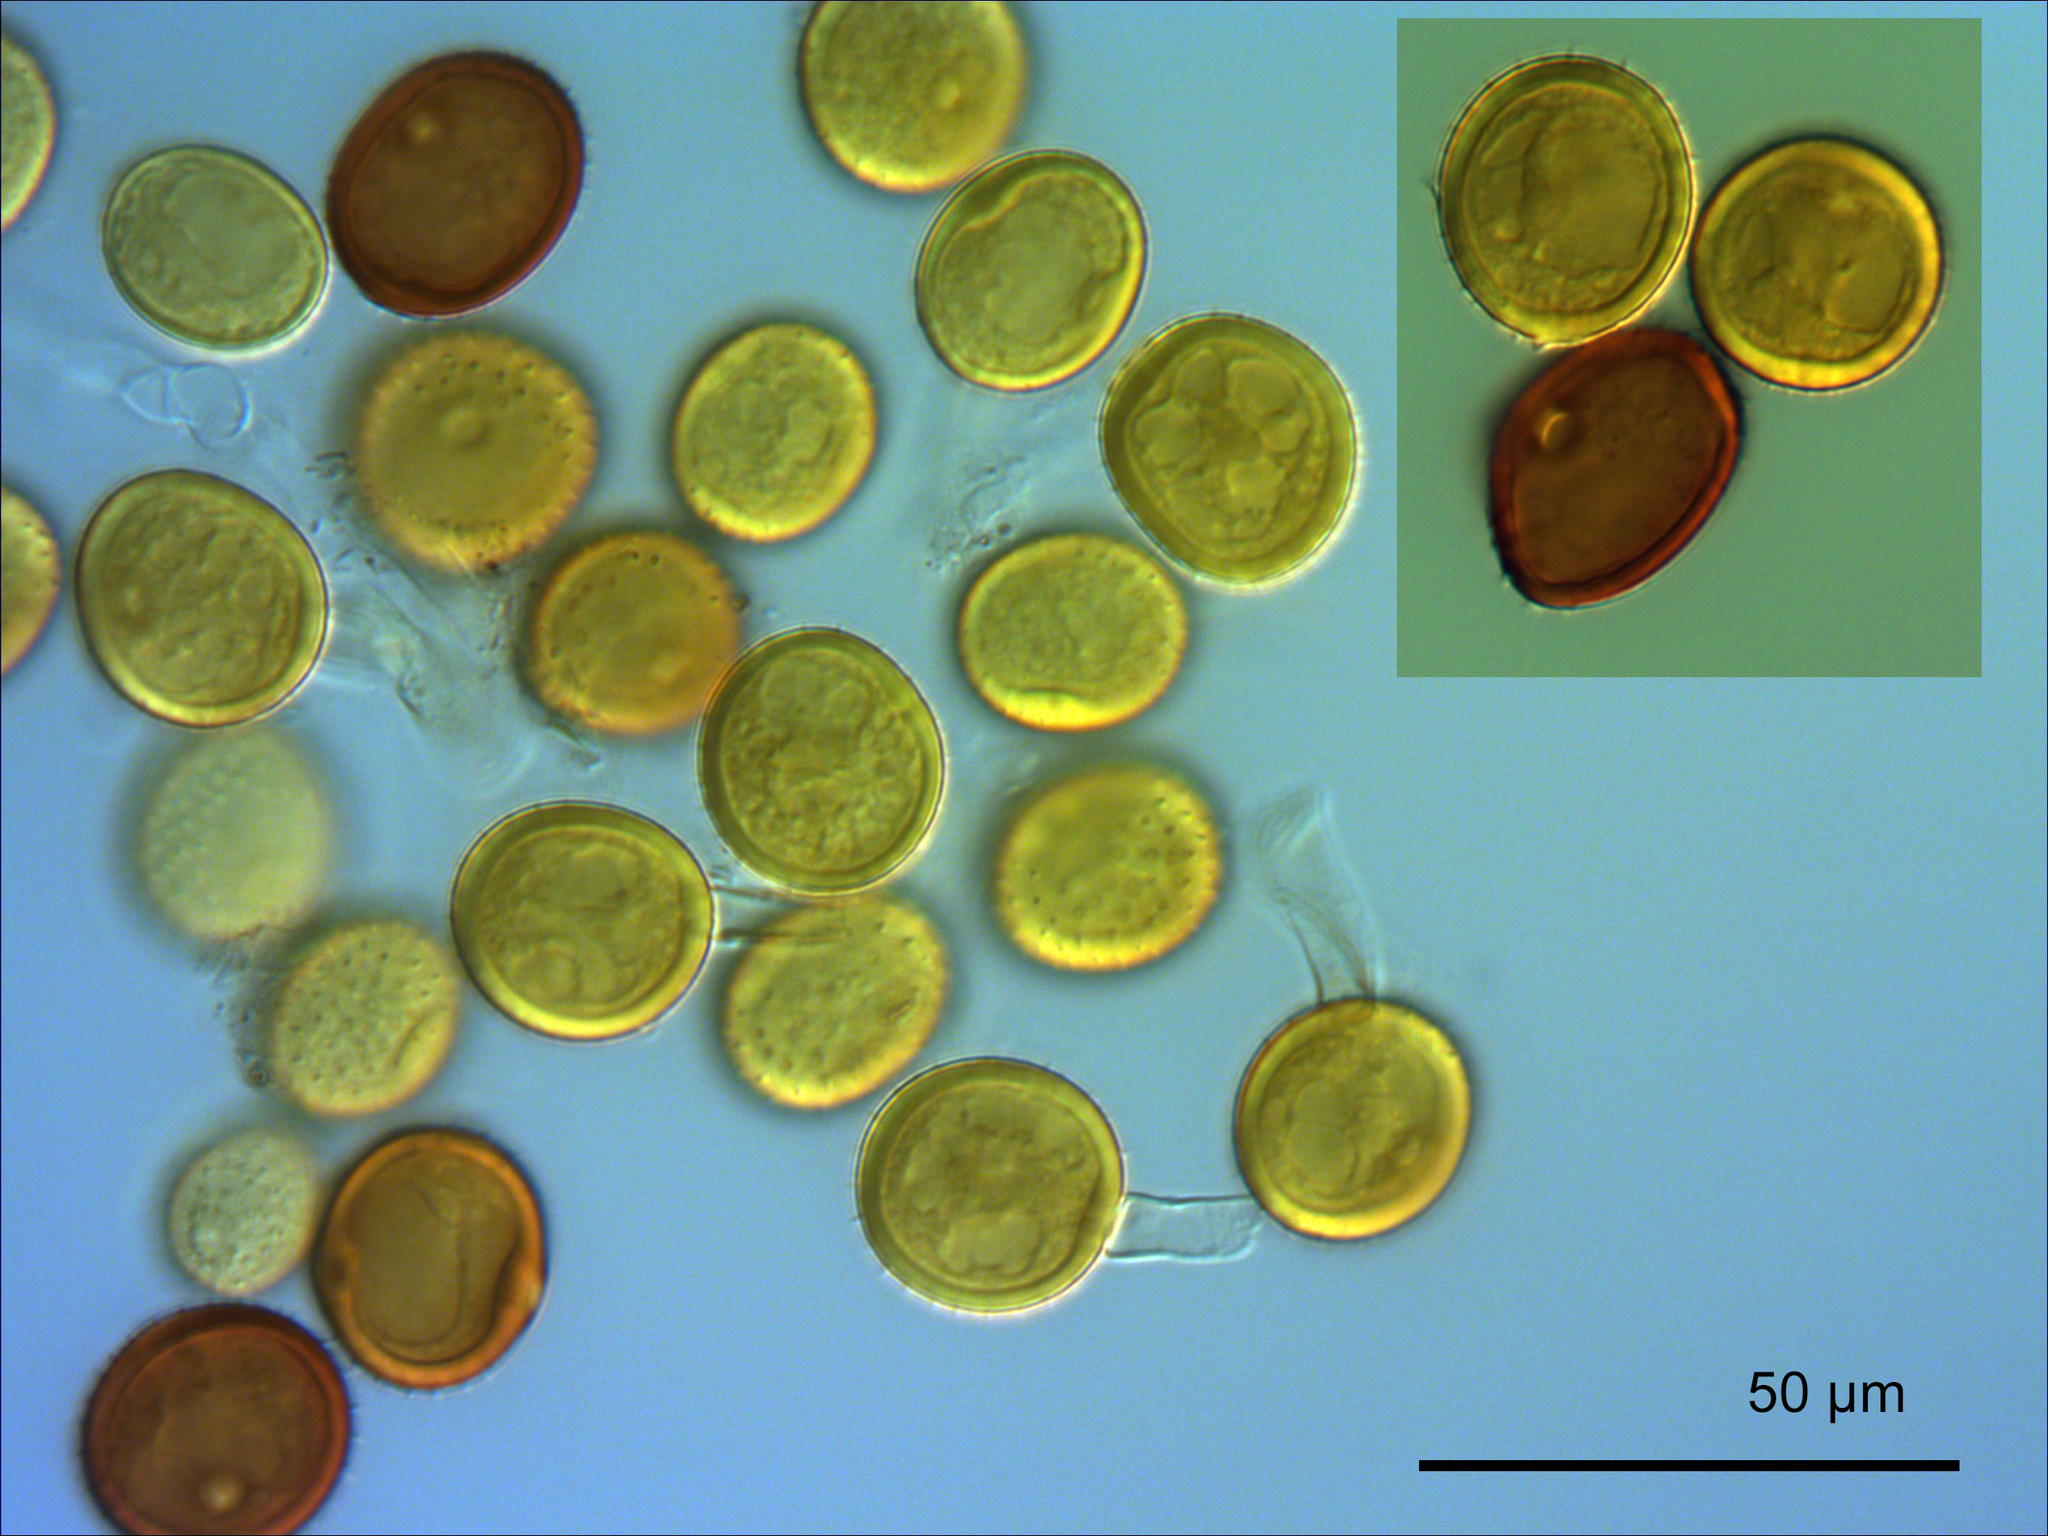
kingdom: Fungi
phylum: Basidiomycota
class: Pucciniomycetes
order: Pucciniales
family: Pucciniaceae
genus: Puccinia
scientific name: Puccinia cockaynei
